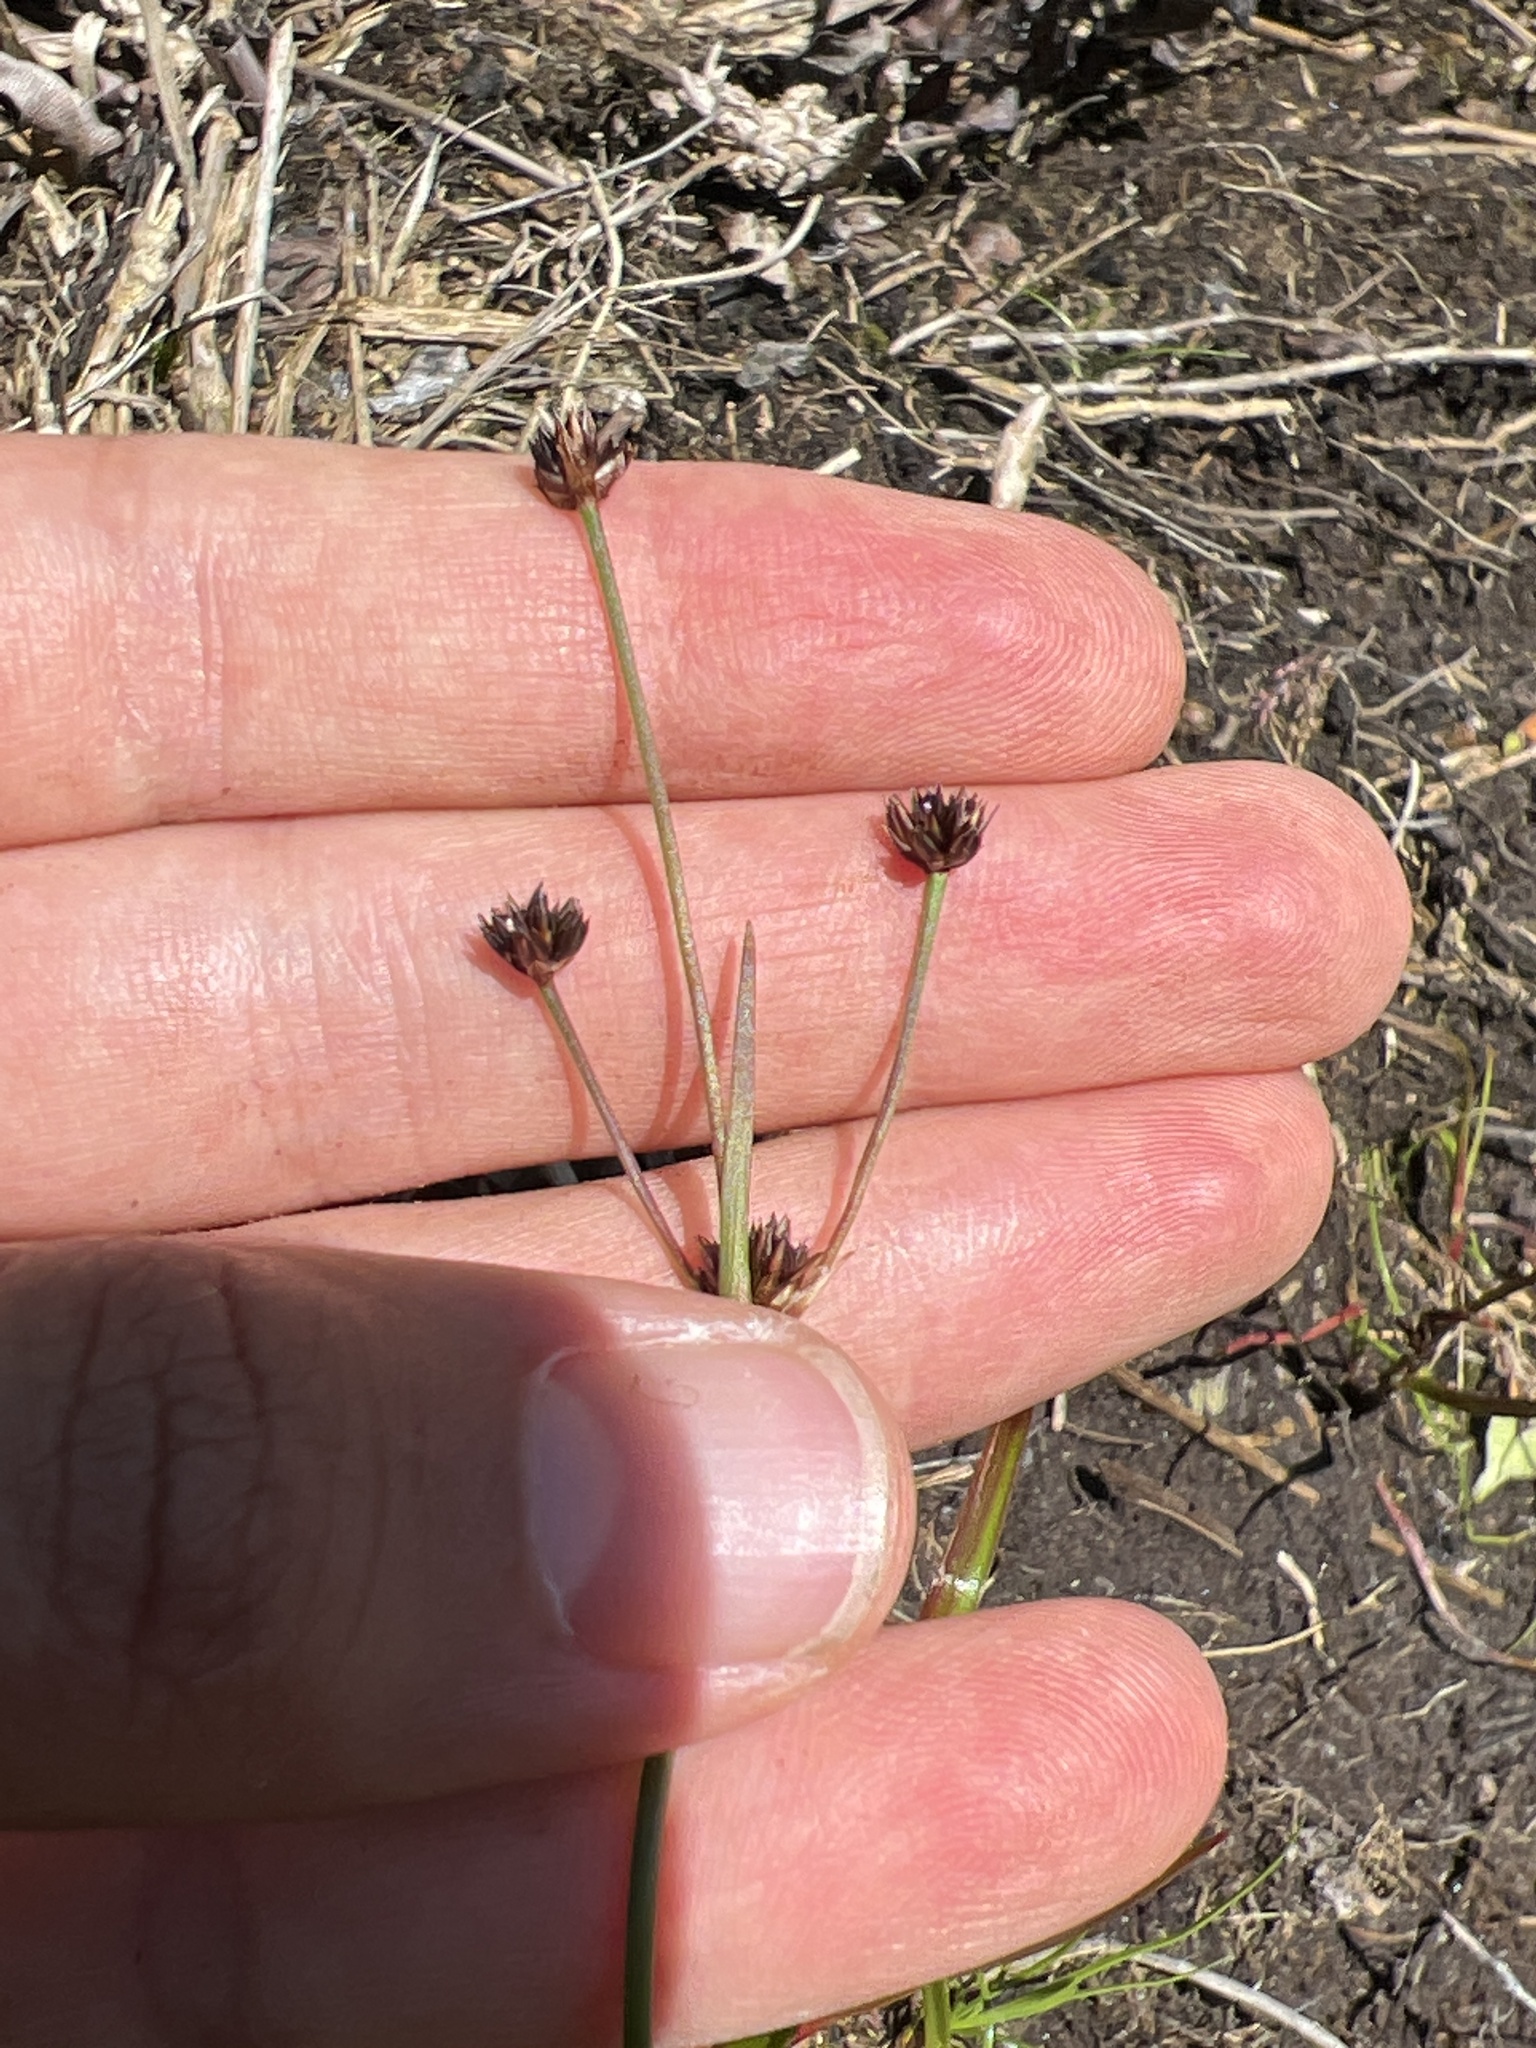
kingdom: Plantae
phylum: Tracheophyta
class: Liliopsida
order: Poales
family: Juncaceae
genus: Juncus
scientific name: Juncus planifolius
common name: Broadleaf rush
